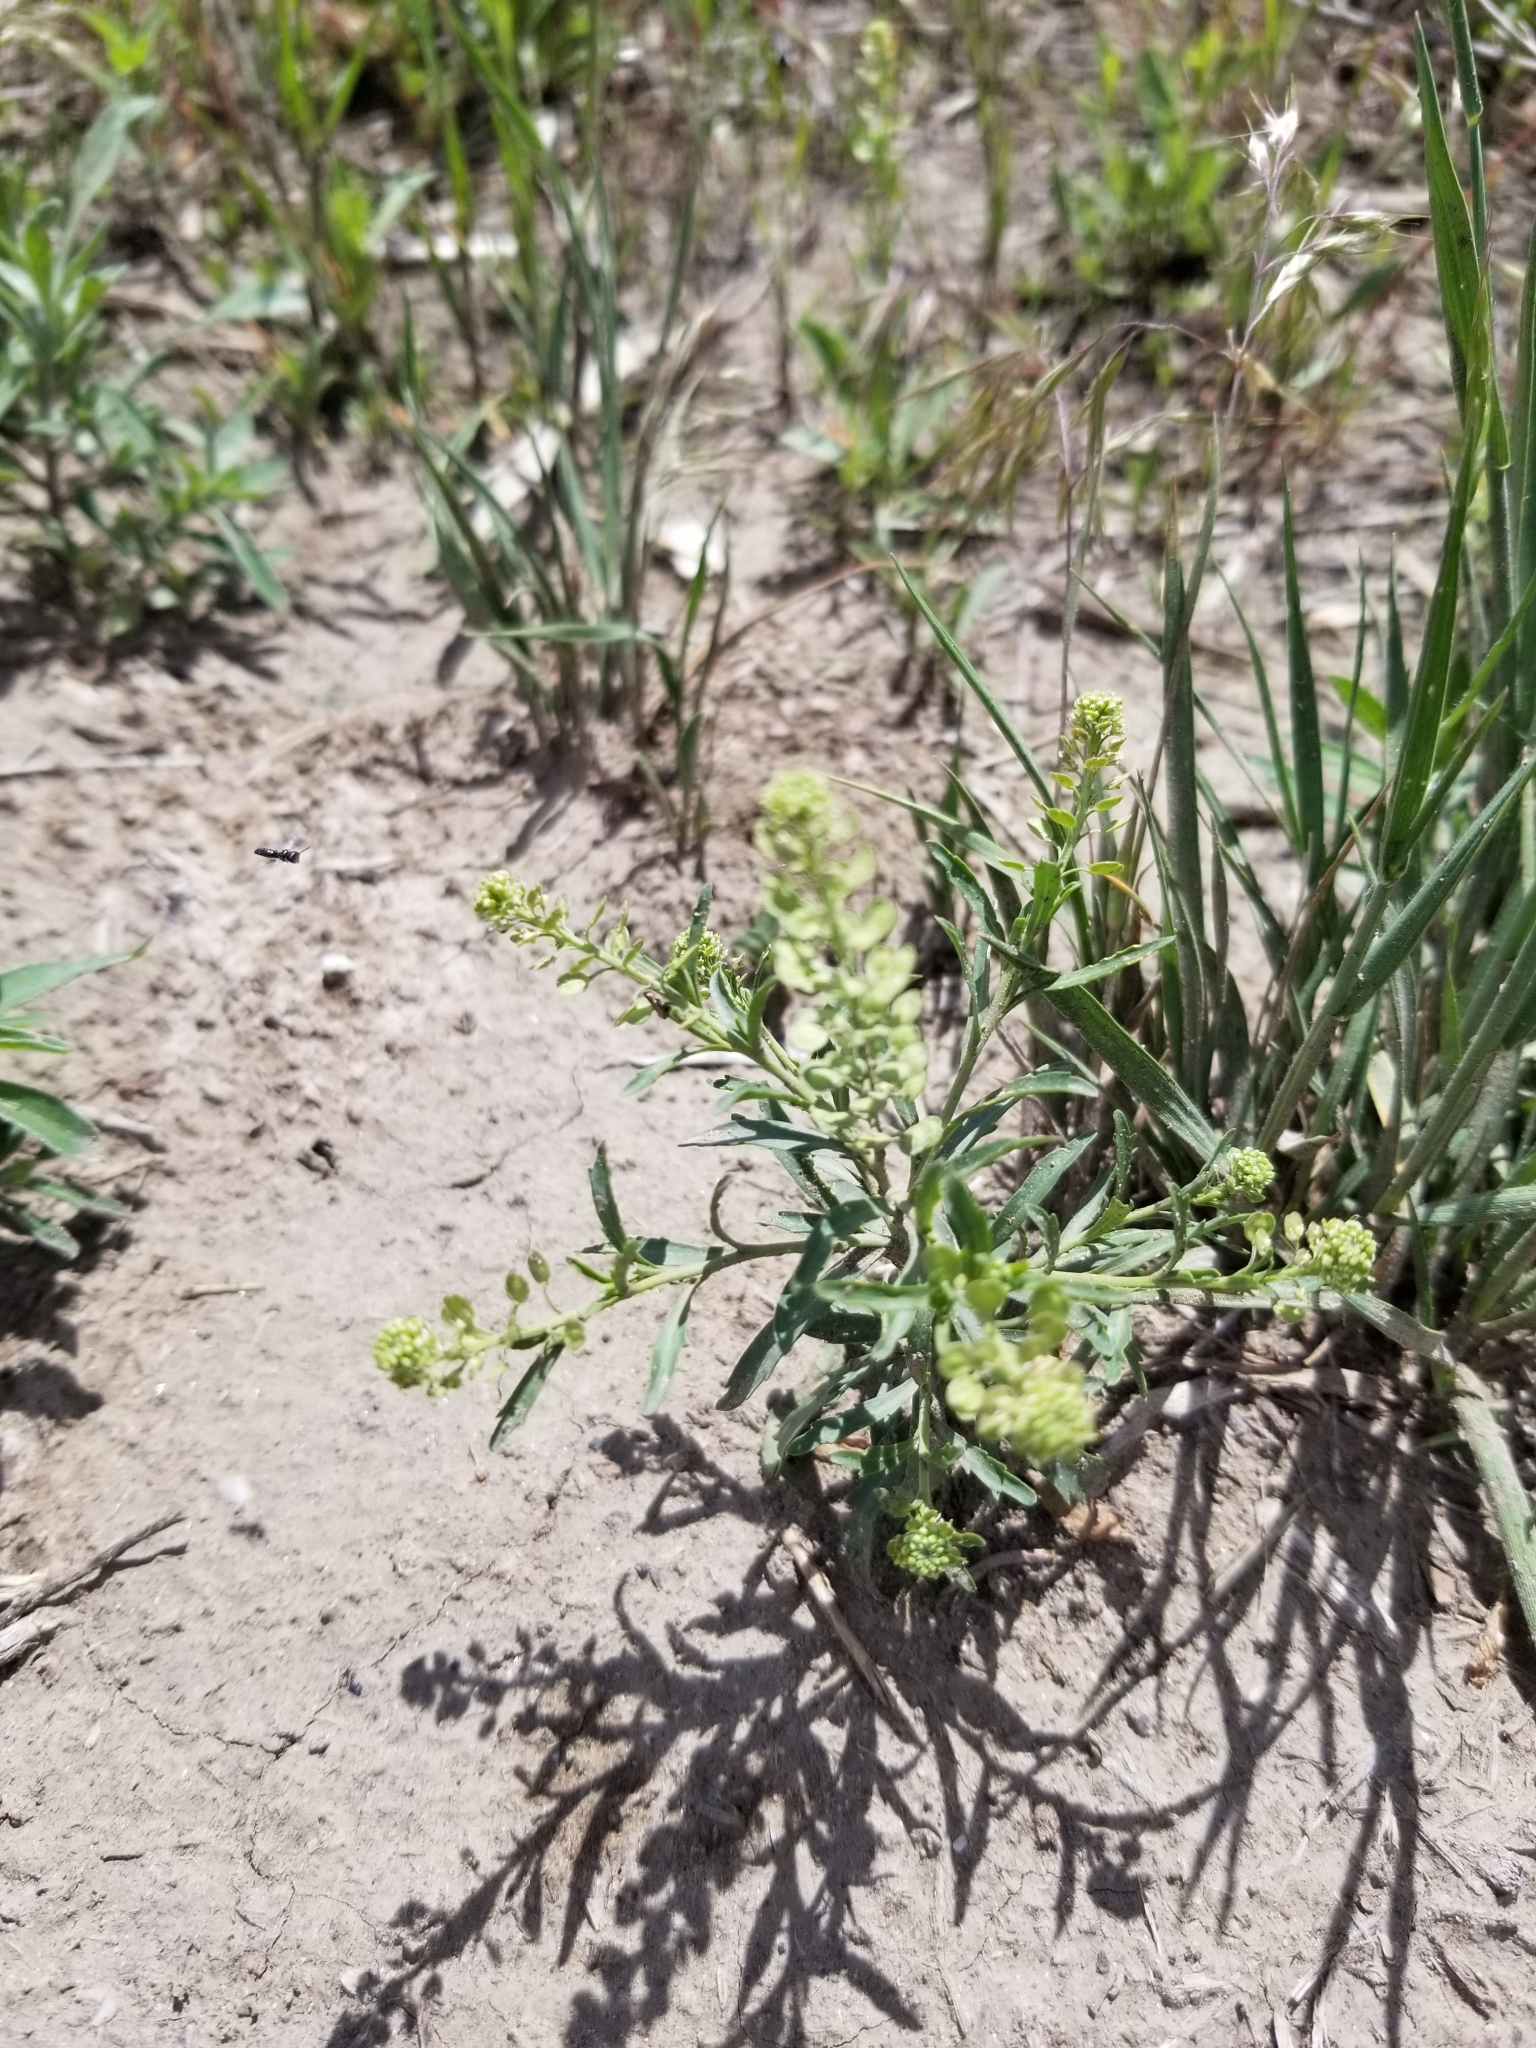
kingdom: Plantae
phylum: Tracheophyta
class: Magnoliopsida
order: Brassicales
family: Brassicaceae
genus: Lepidium
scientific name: Lepidium densiflorum
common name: Miner's pepperwort
